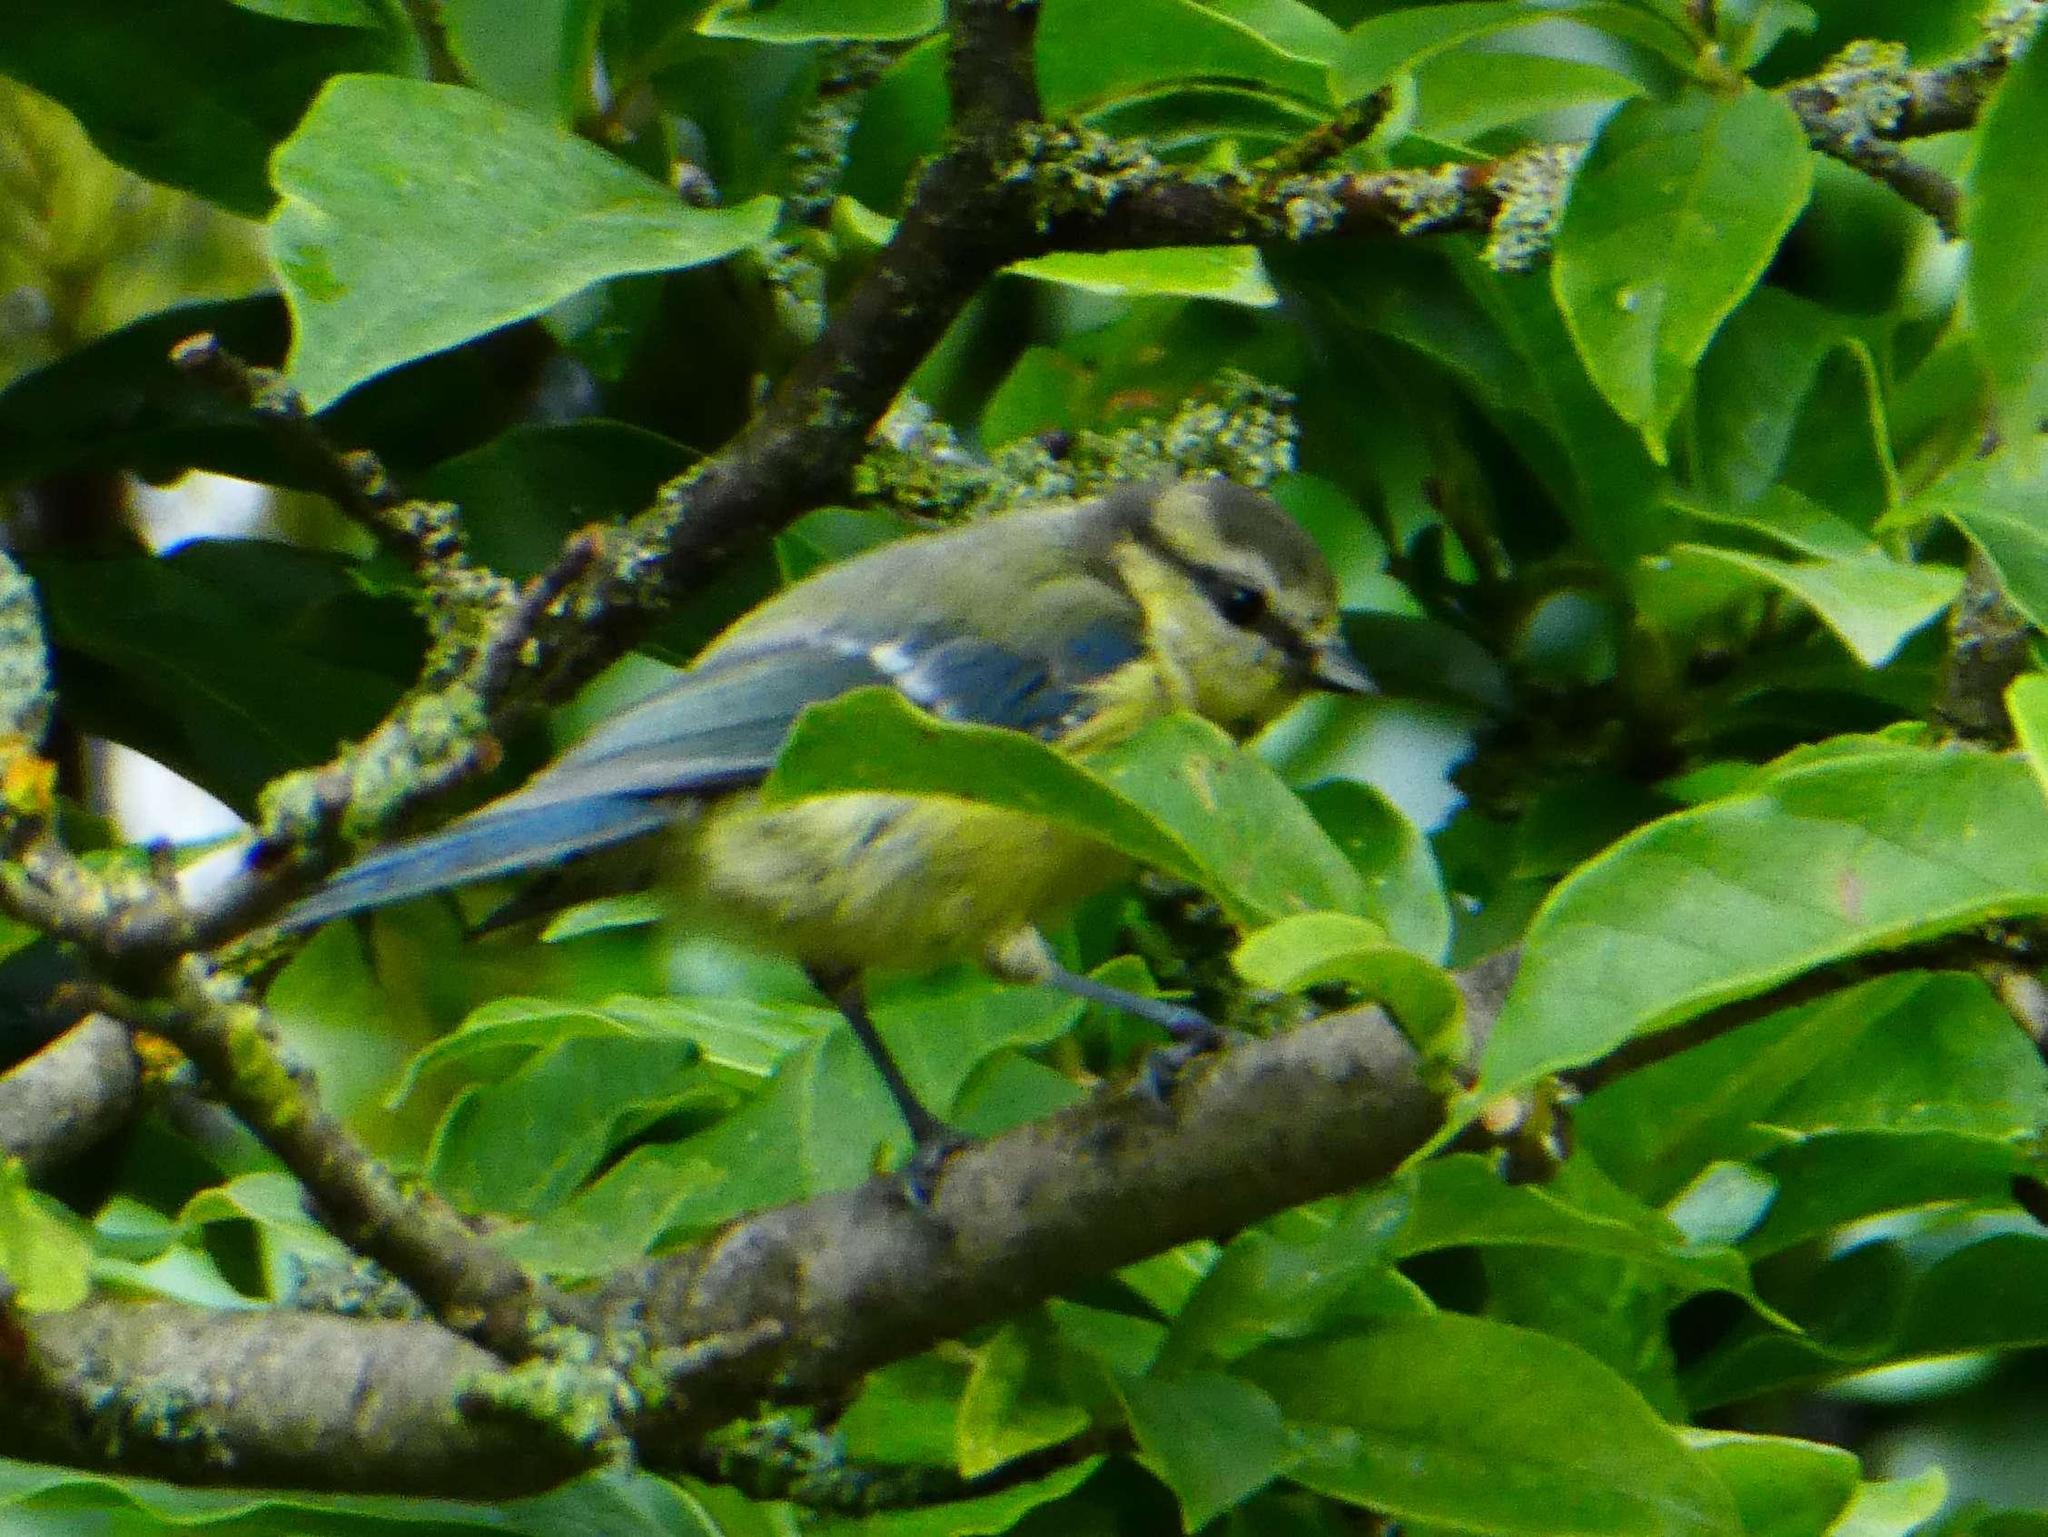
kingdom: Animalia
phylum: Chordata
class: Aves
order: Passeriformes
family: Paridae
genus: Cyanistes
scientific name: Cyanistes caeruleus
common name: Eurasian blue tit
